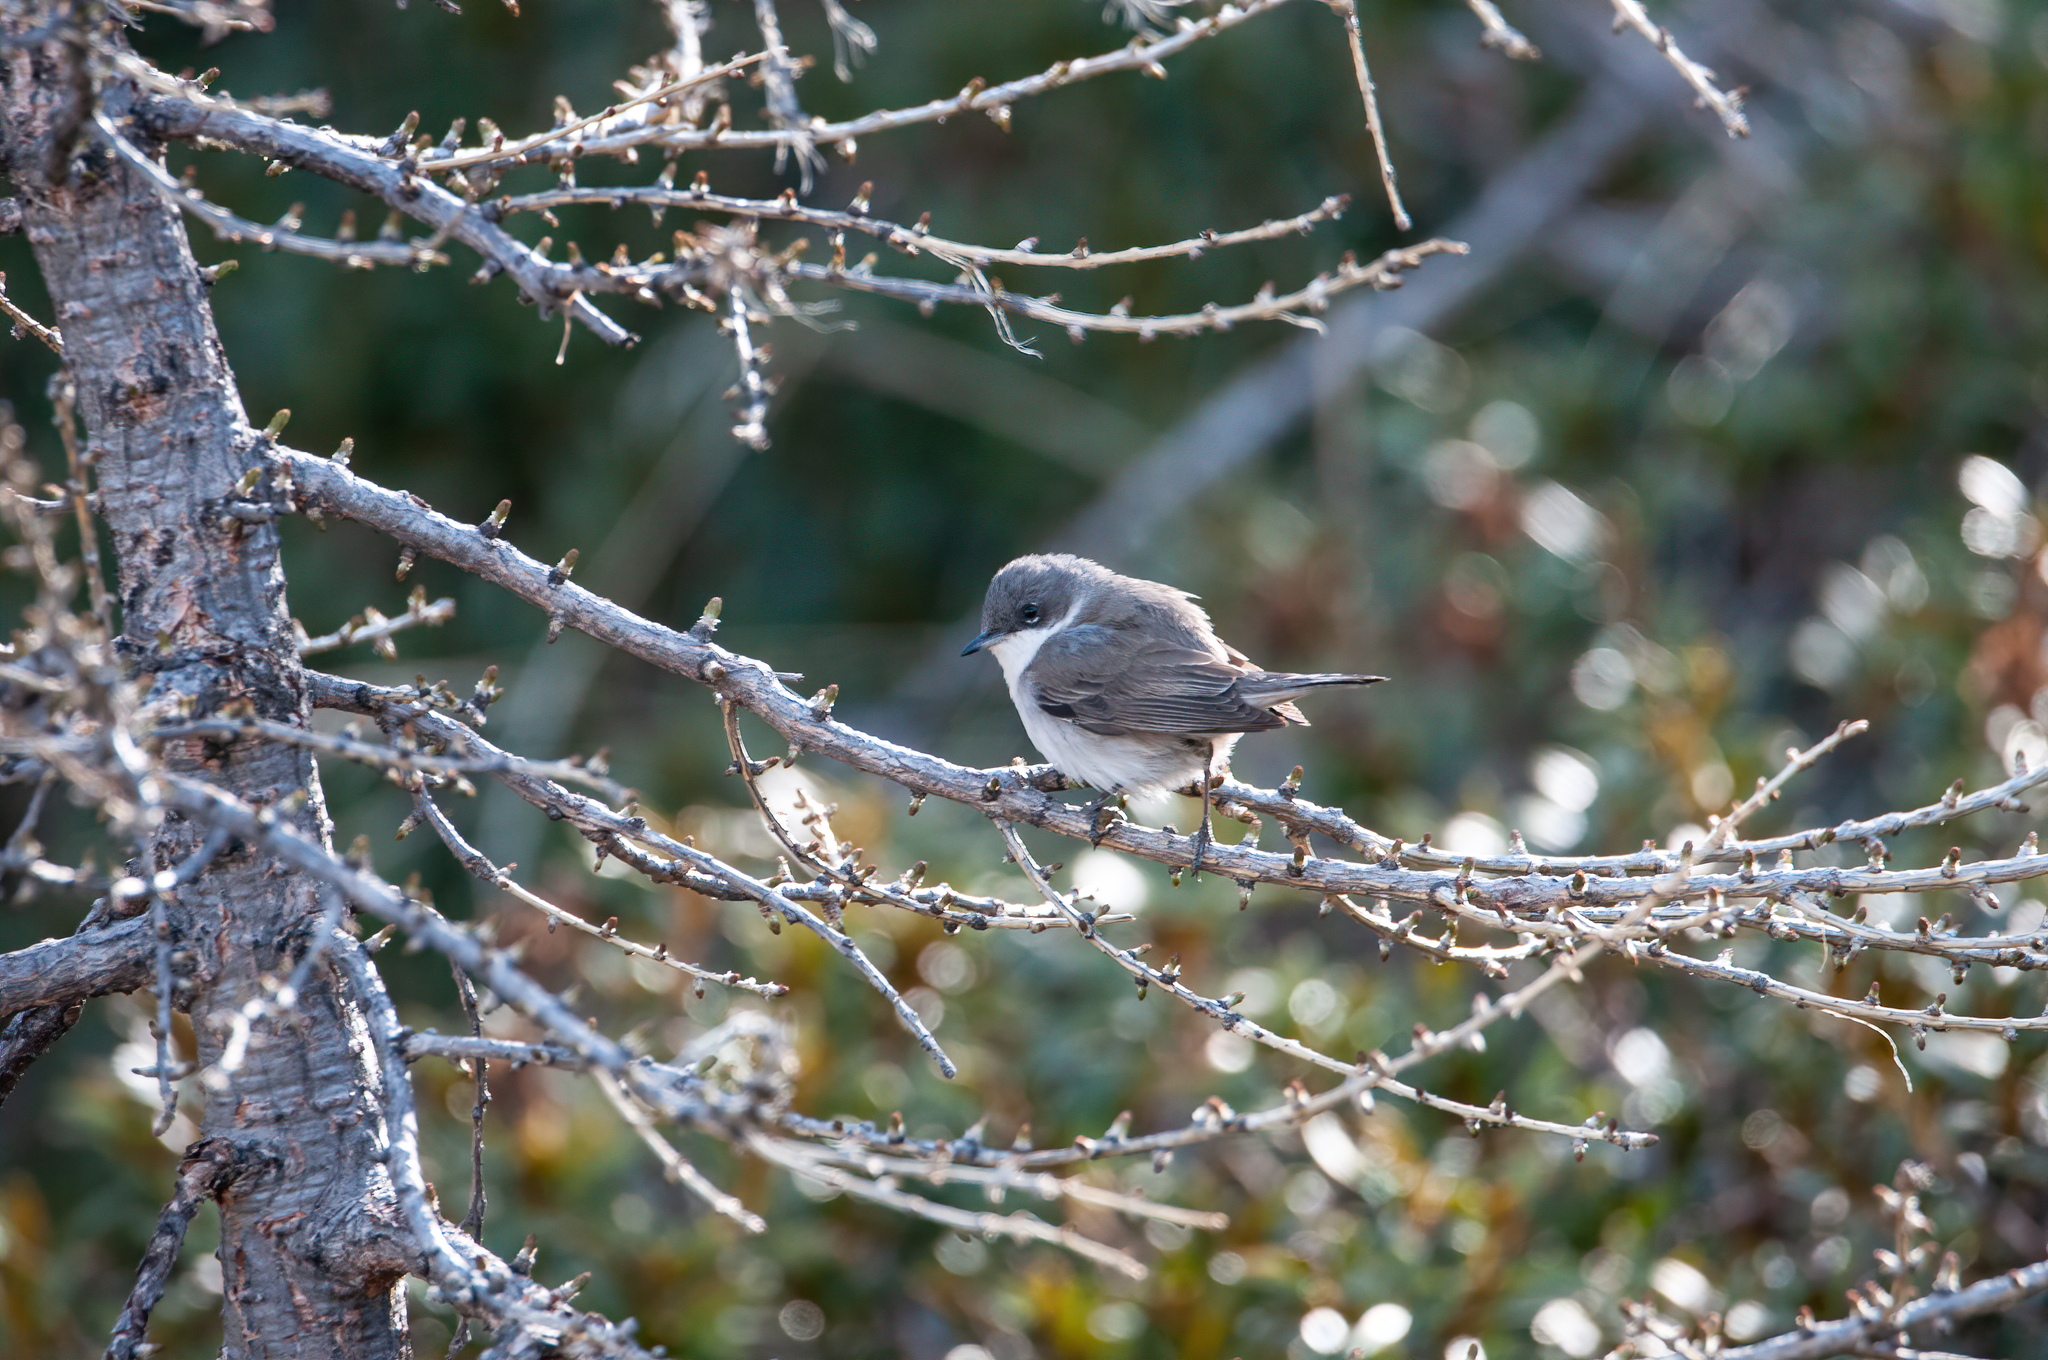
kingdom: Animalia
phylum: Chordata
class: Aves
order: Passeriformes
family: Sylviidae
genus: Sylvia
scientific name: Sylvia curruca
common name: Lesser whitethroat
